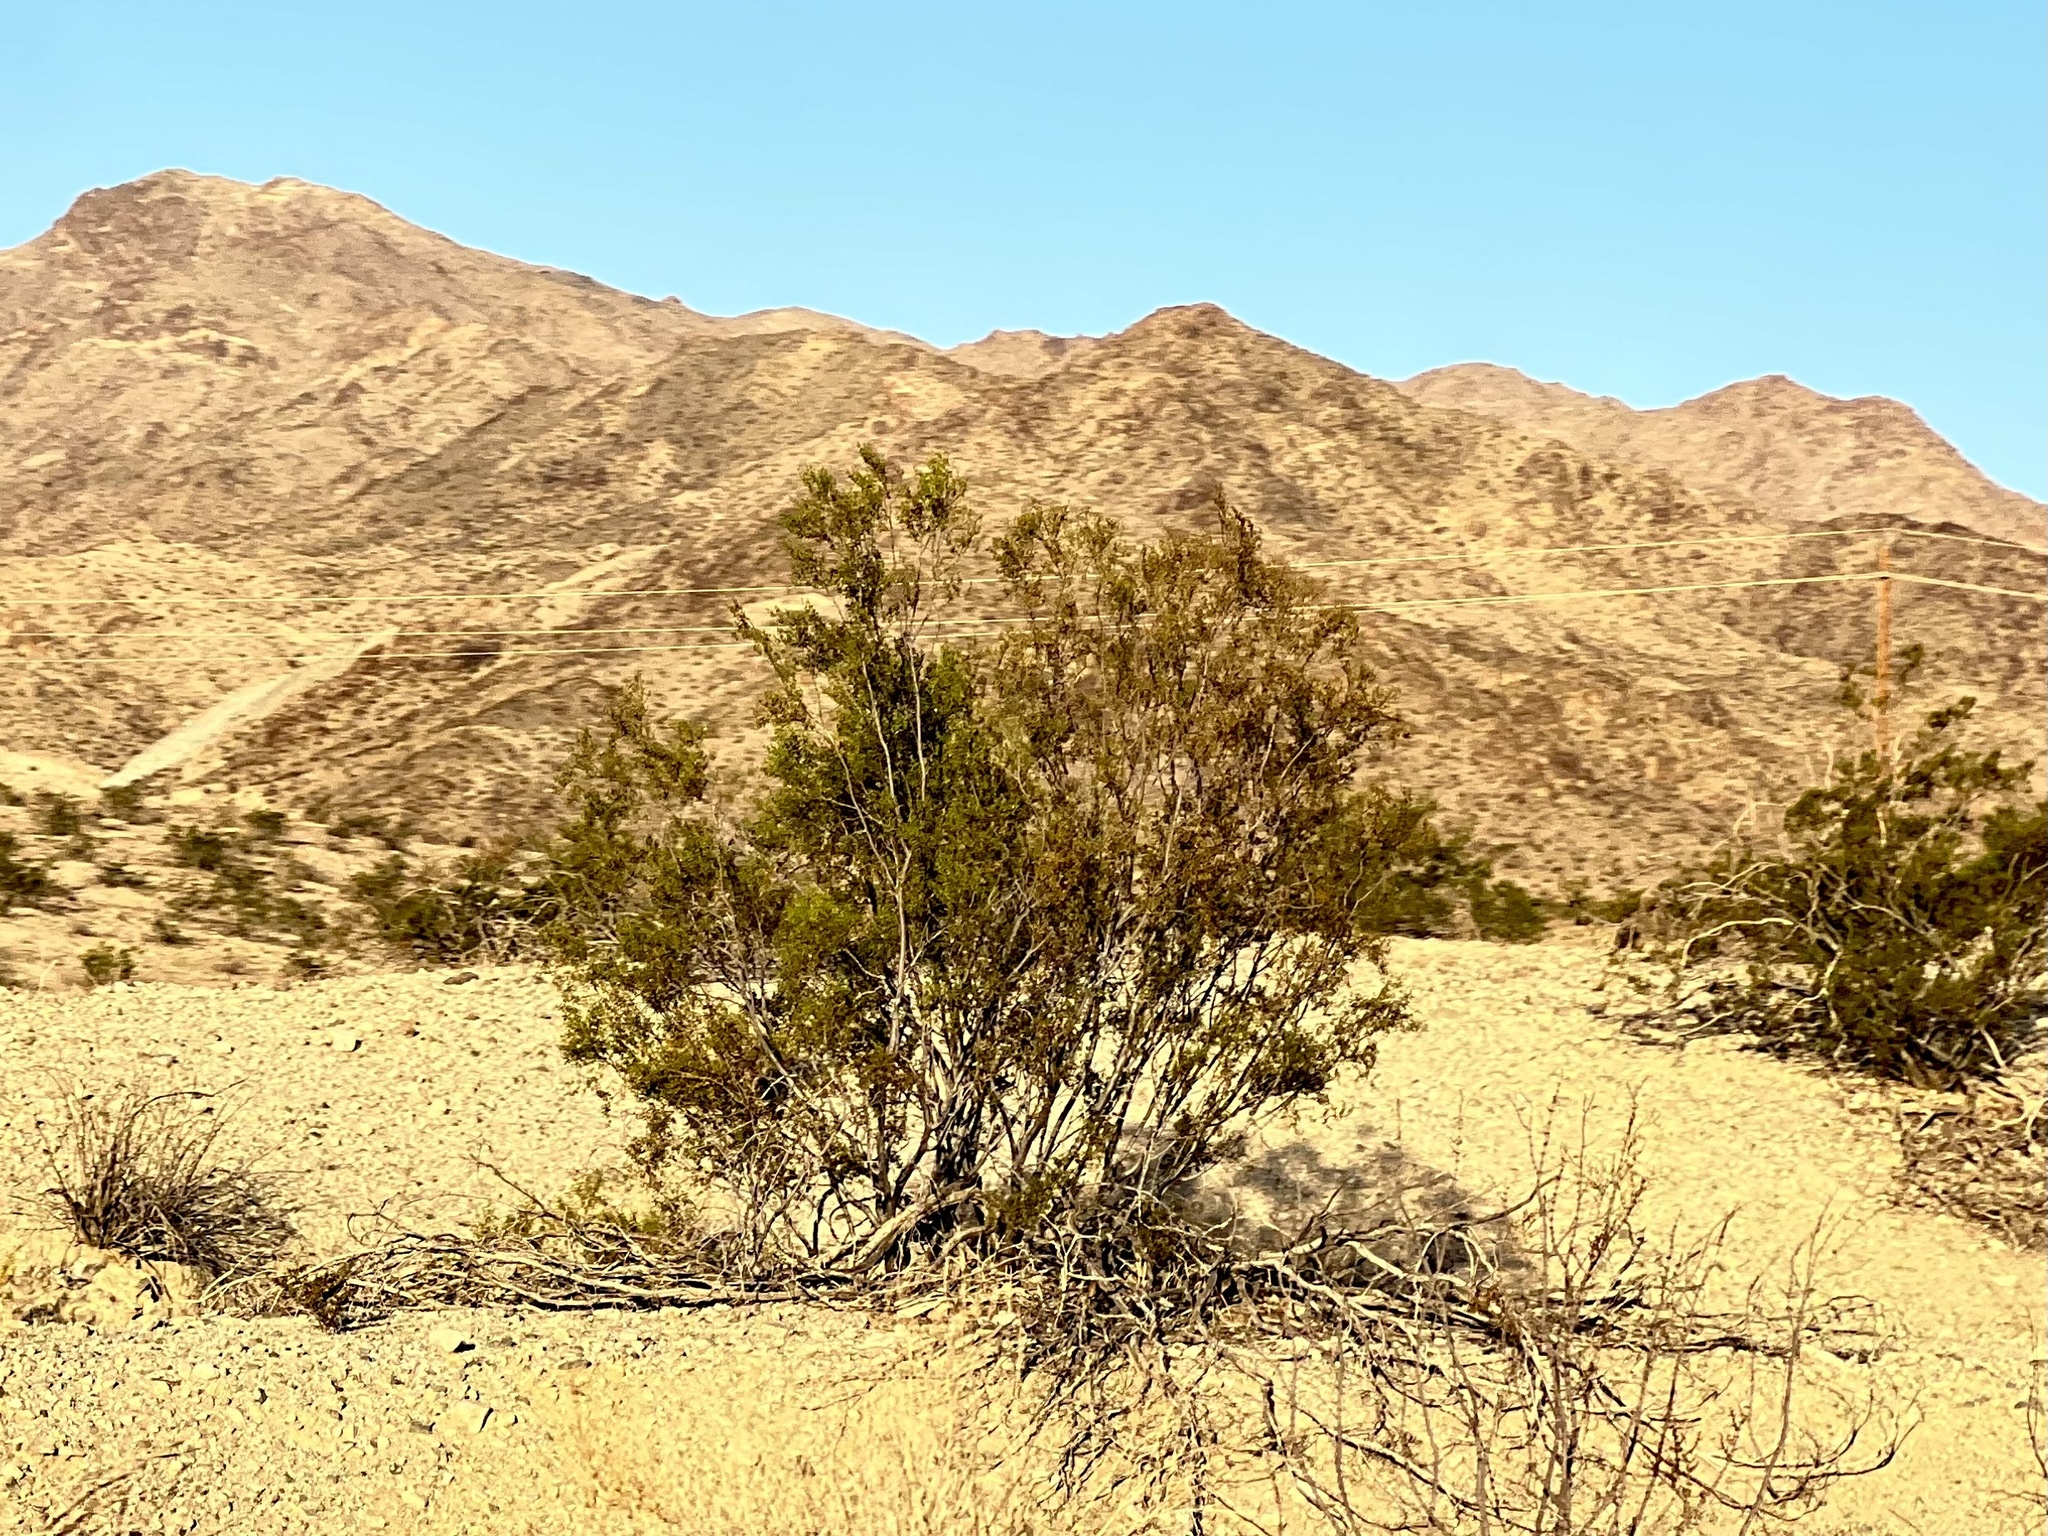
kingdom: Plantae
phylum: Tracheophyta
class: Magnoliopsida
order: Zygophyllales
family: Zygophyllaceae
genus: Larrea
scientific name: Larrea tridentata
